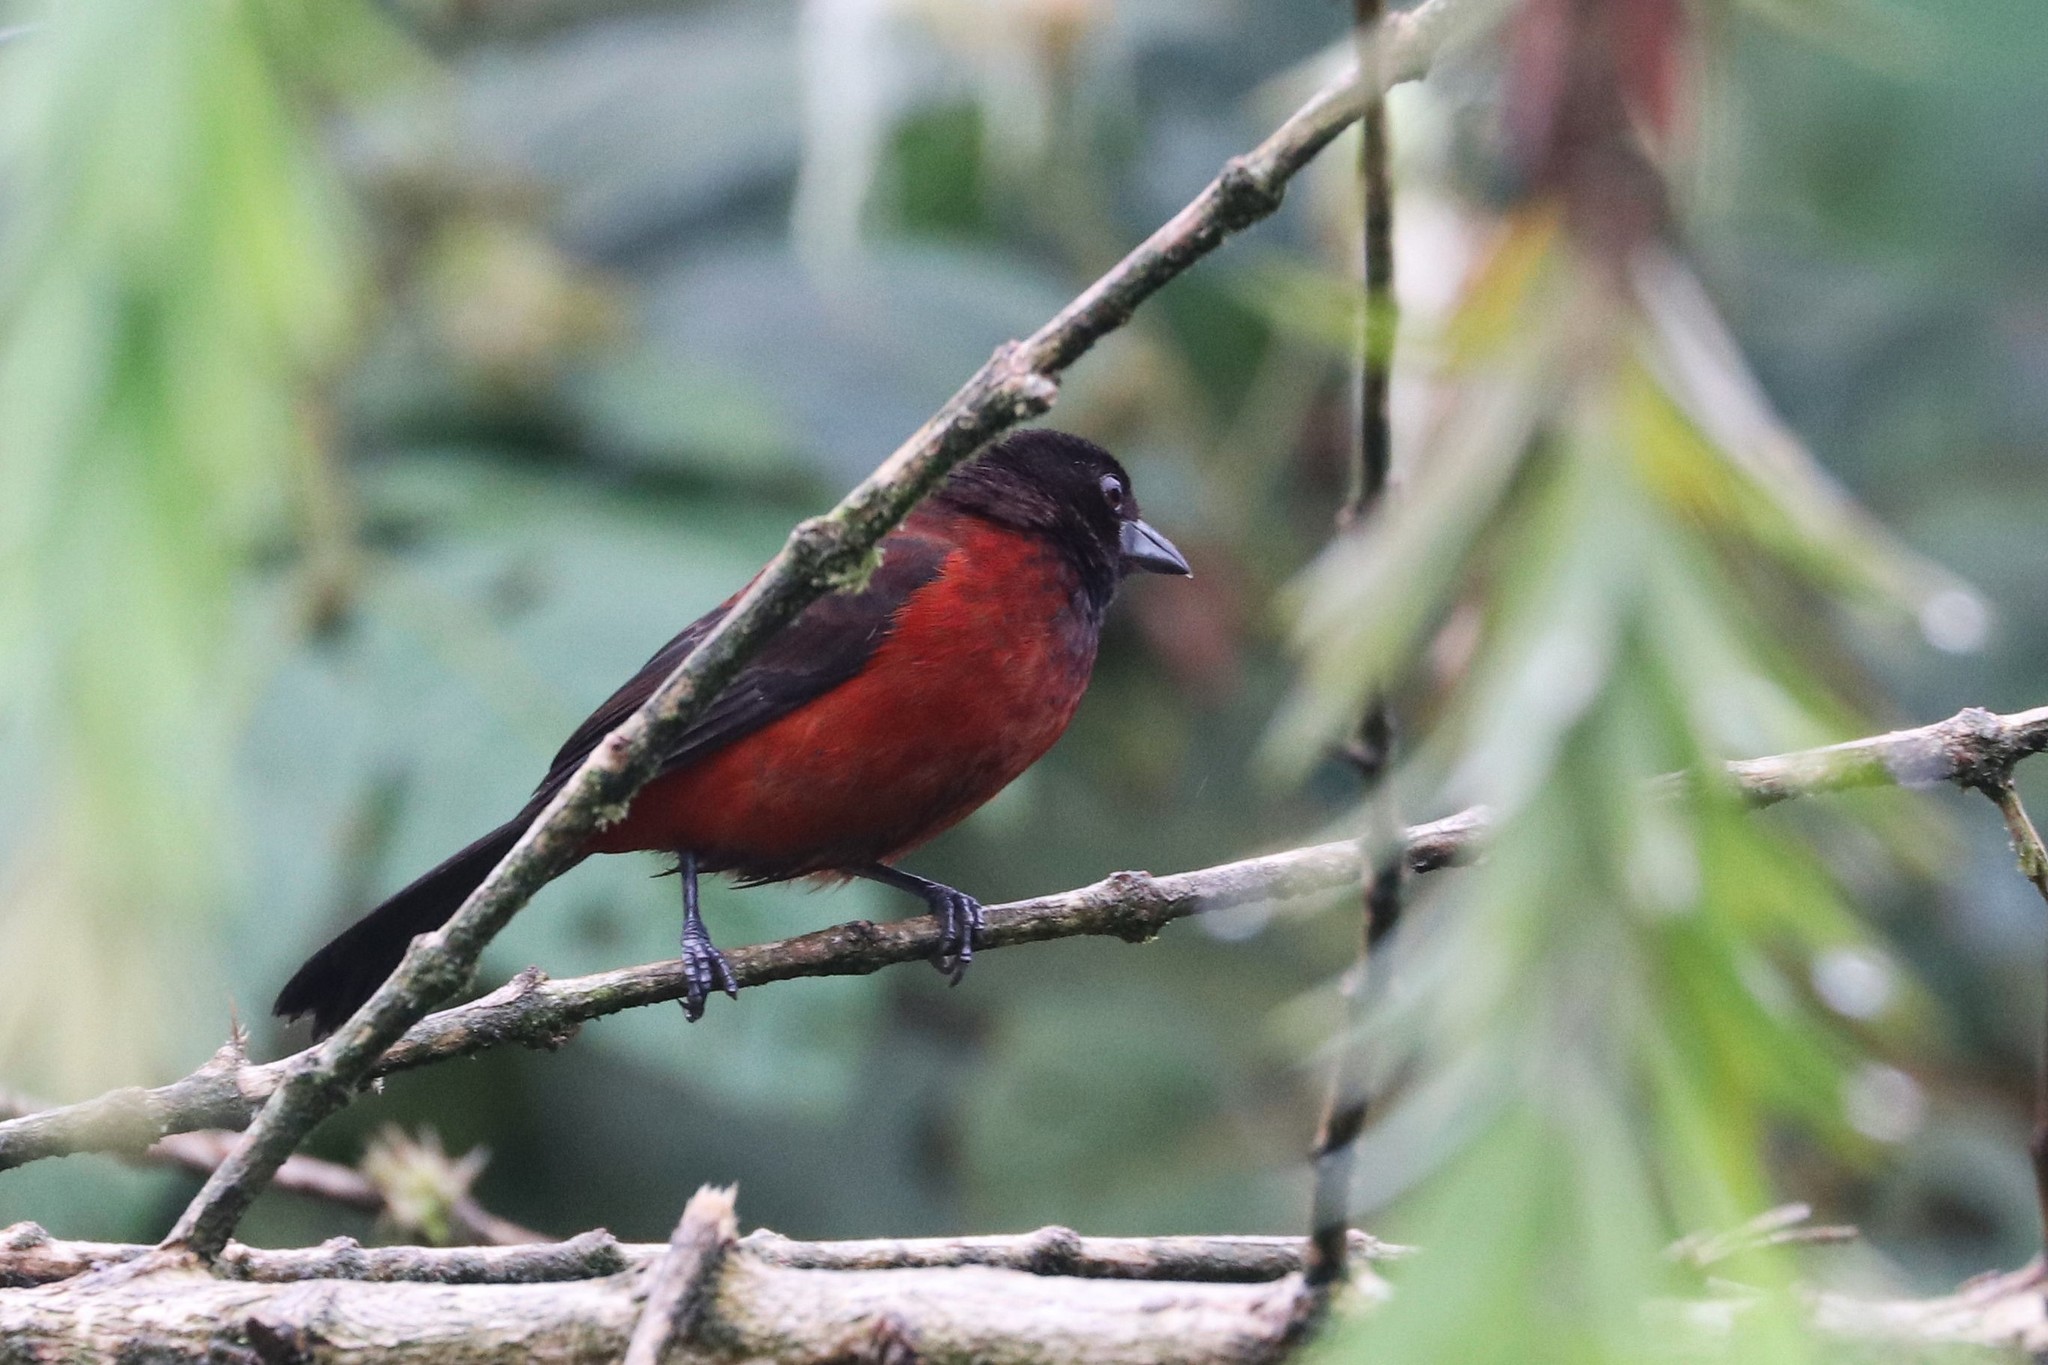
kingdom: Animalia
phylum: Chordata
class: Aves
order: Passeriformes
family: Thraupidae
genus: Ramphocelus
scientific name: Ramphocelus dimidiatus
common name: Crimson-backed tanager
